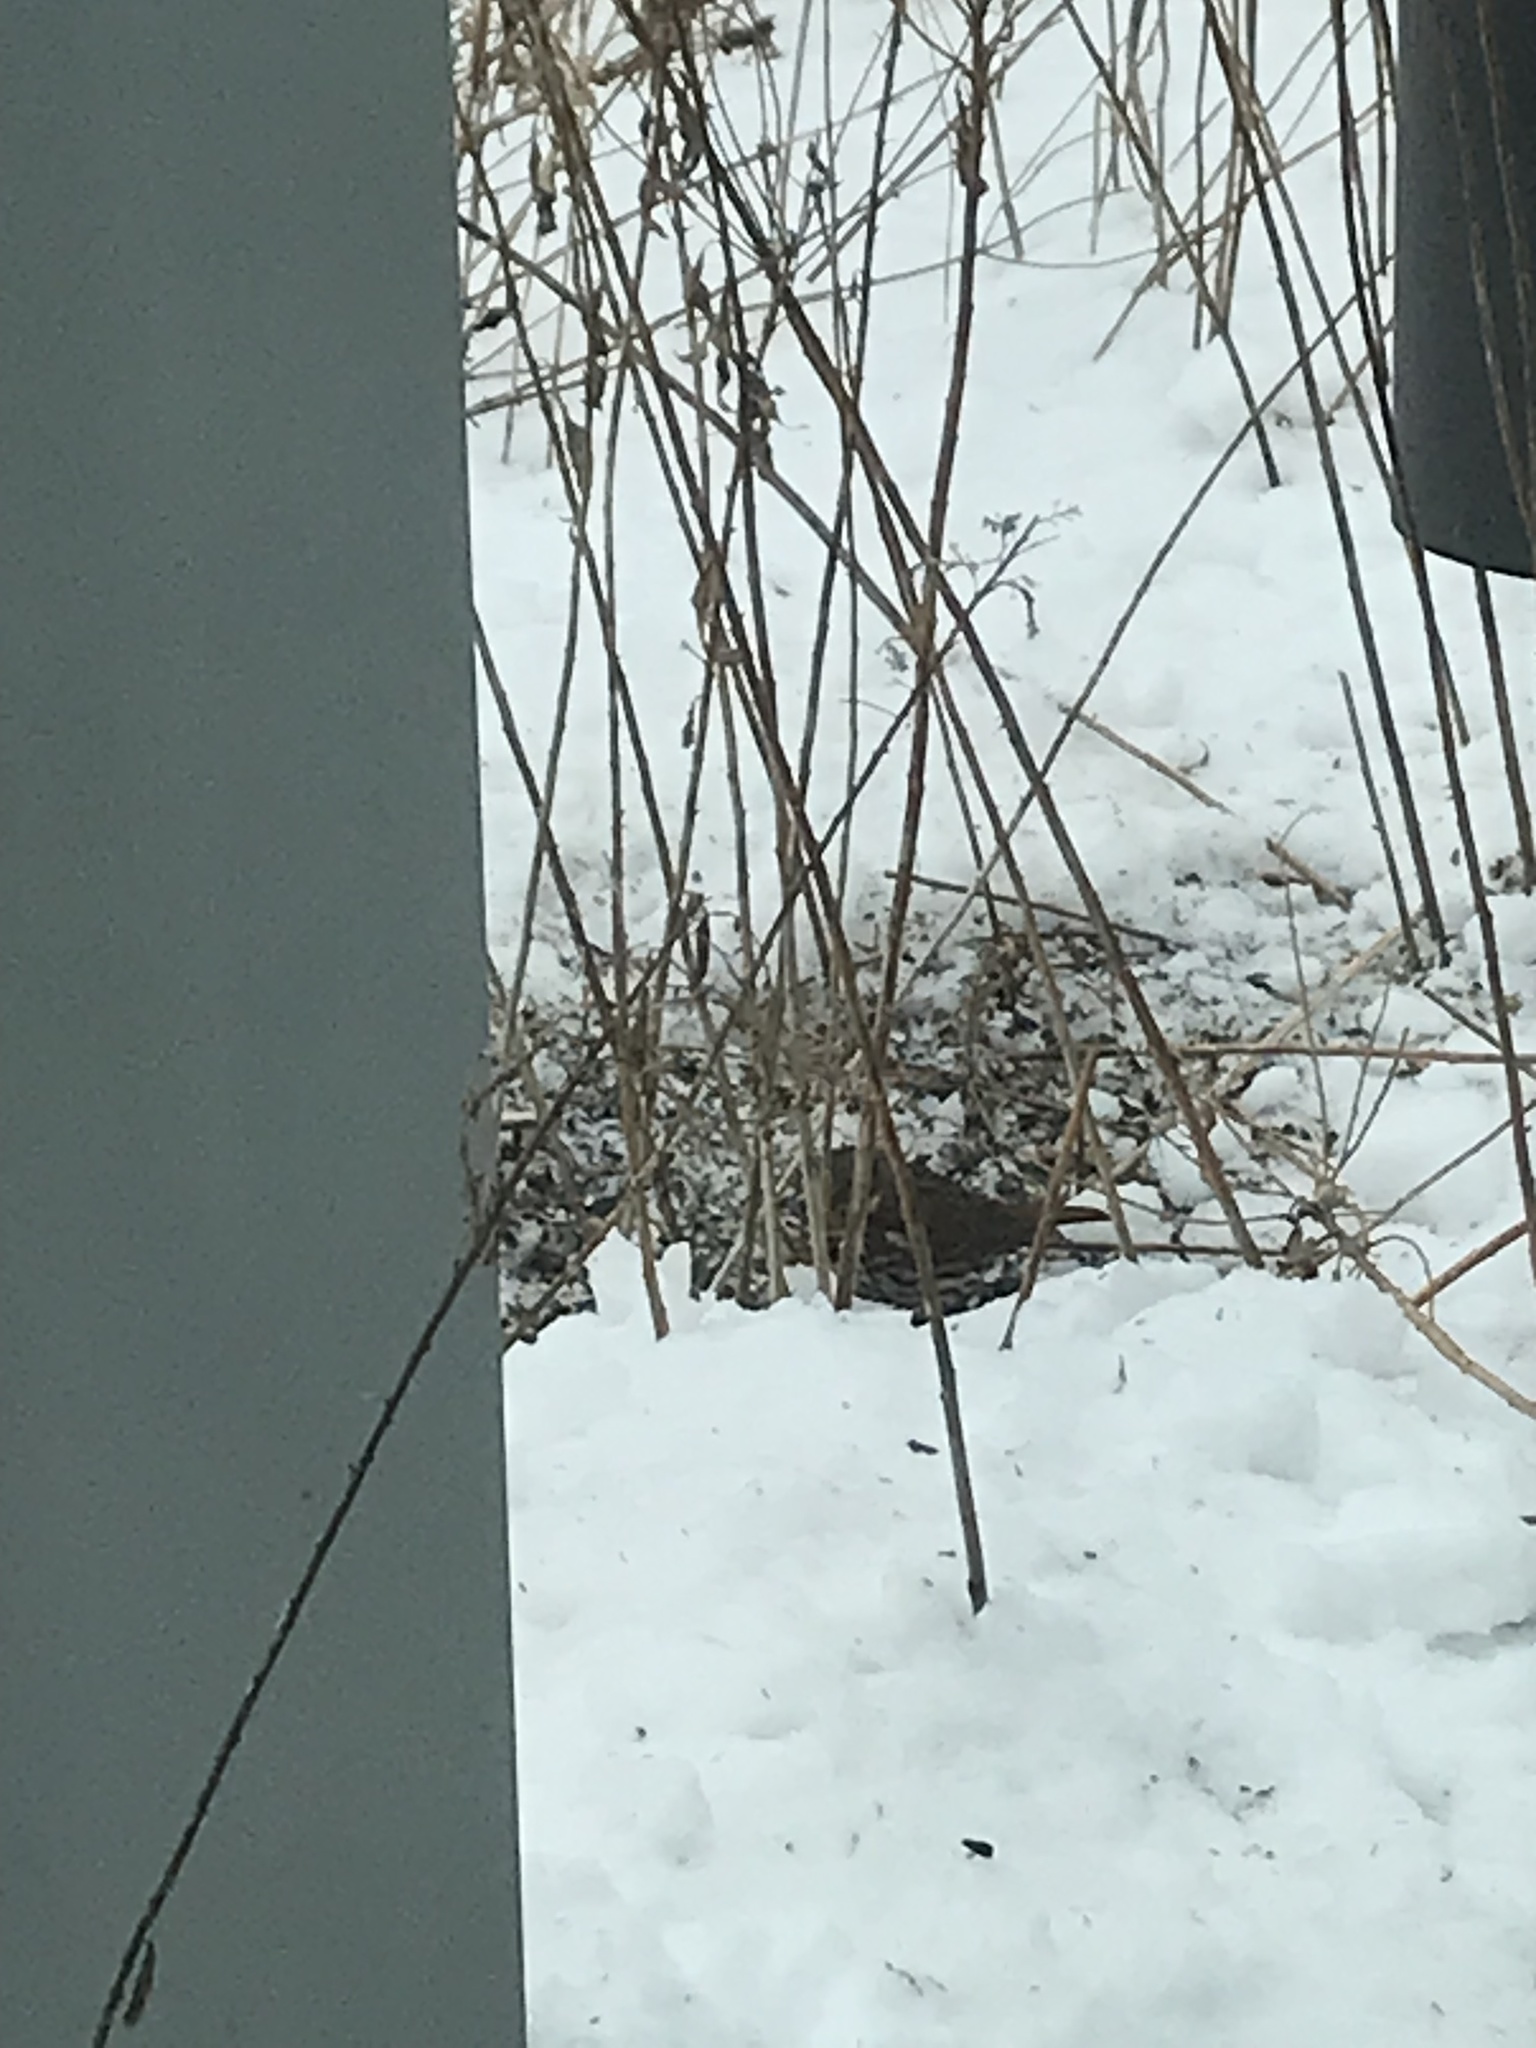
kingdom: Animalia
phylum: Chordata
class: Aves
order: Passeriformes
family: Passerellidae
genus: Passerella
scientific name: Passerella iliaca
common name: Fox sparrow
